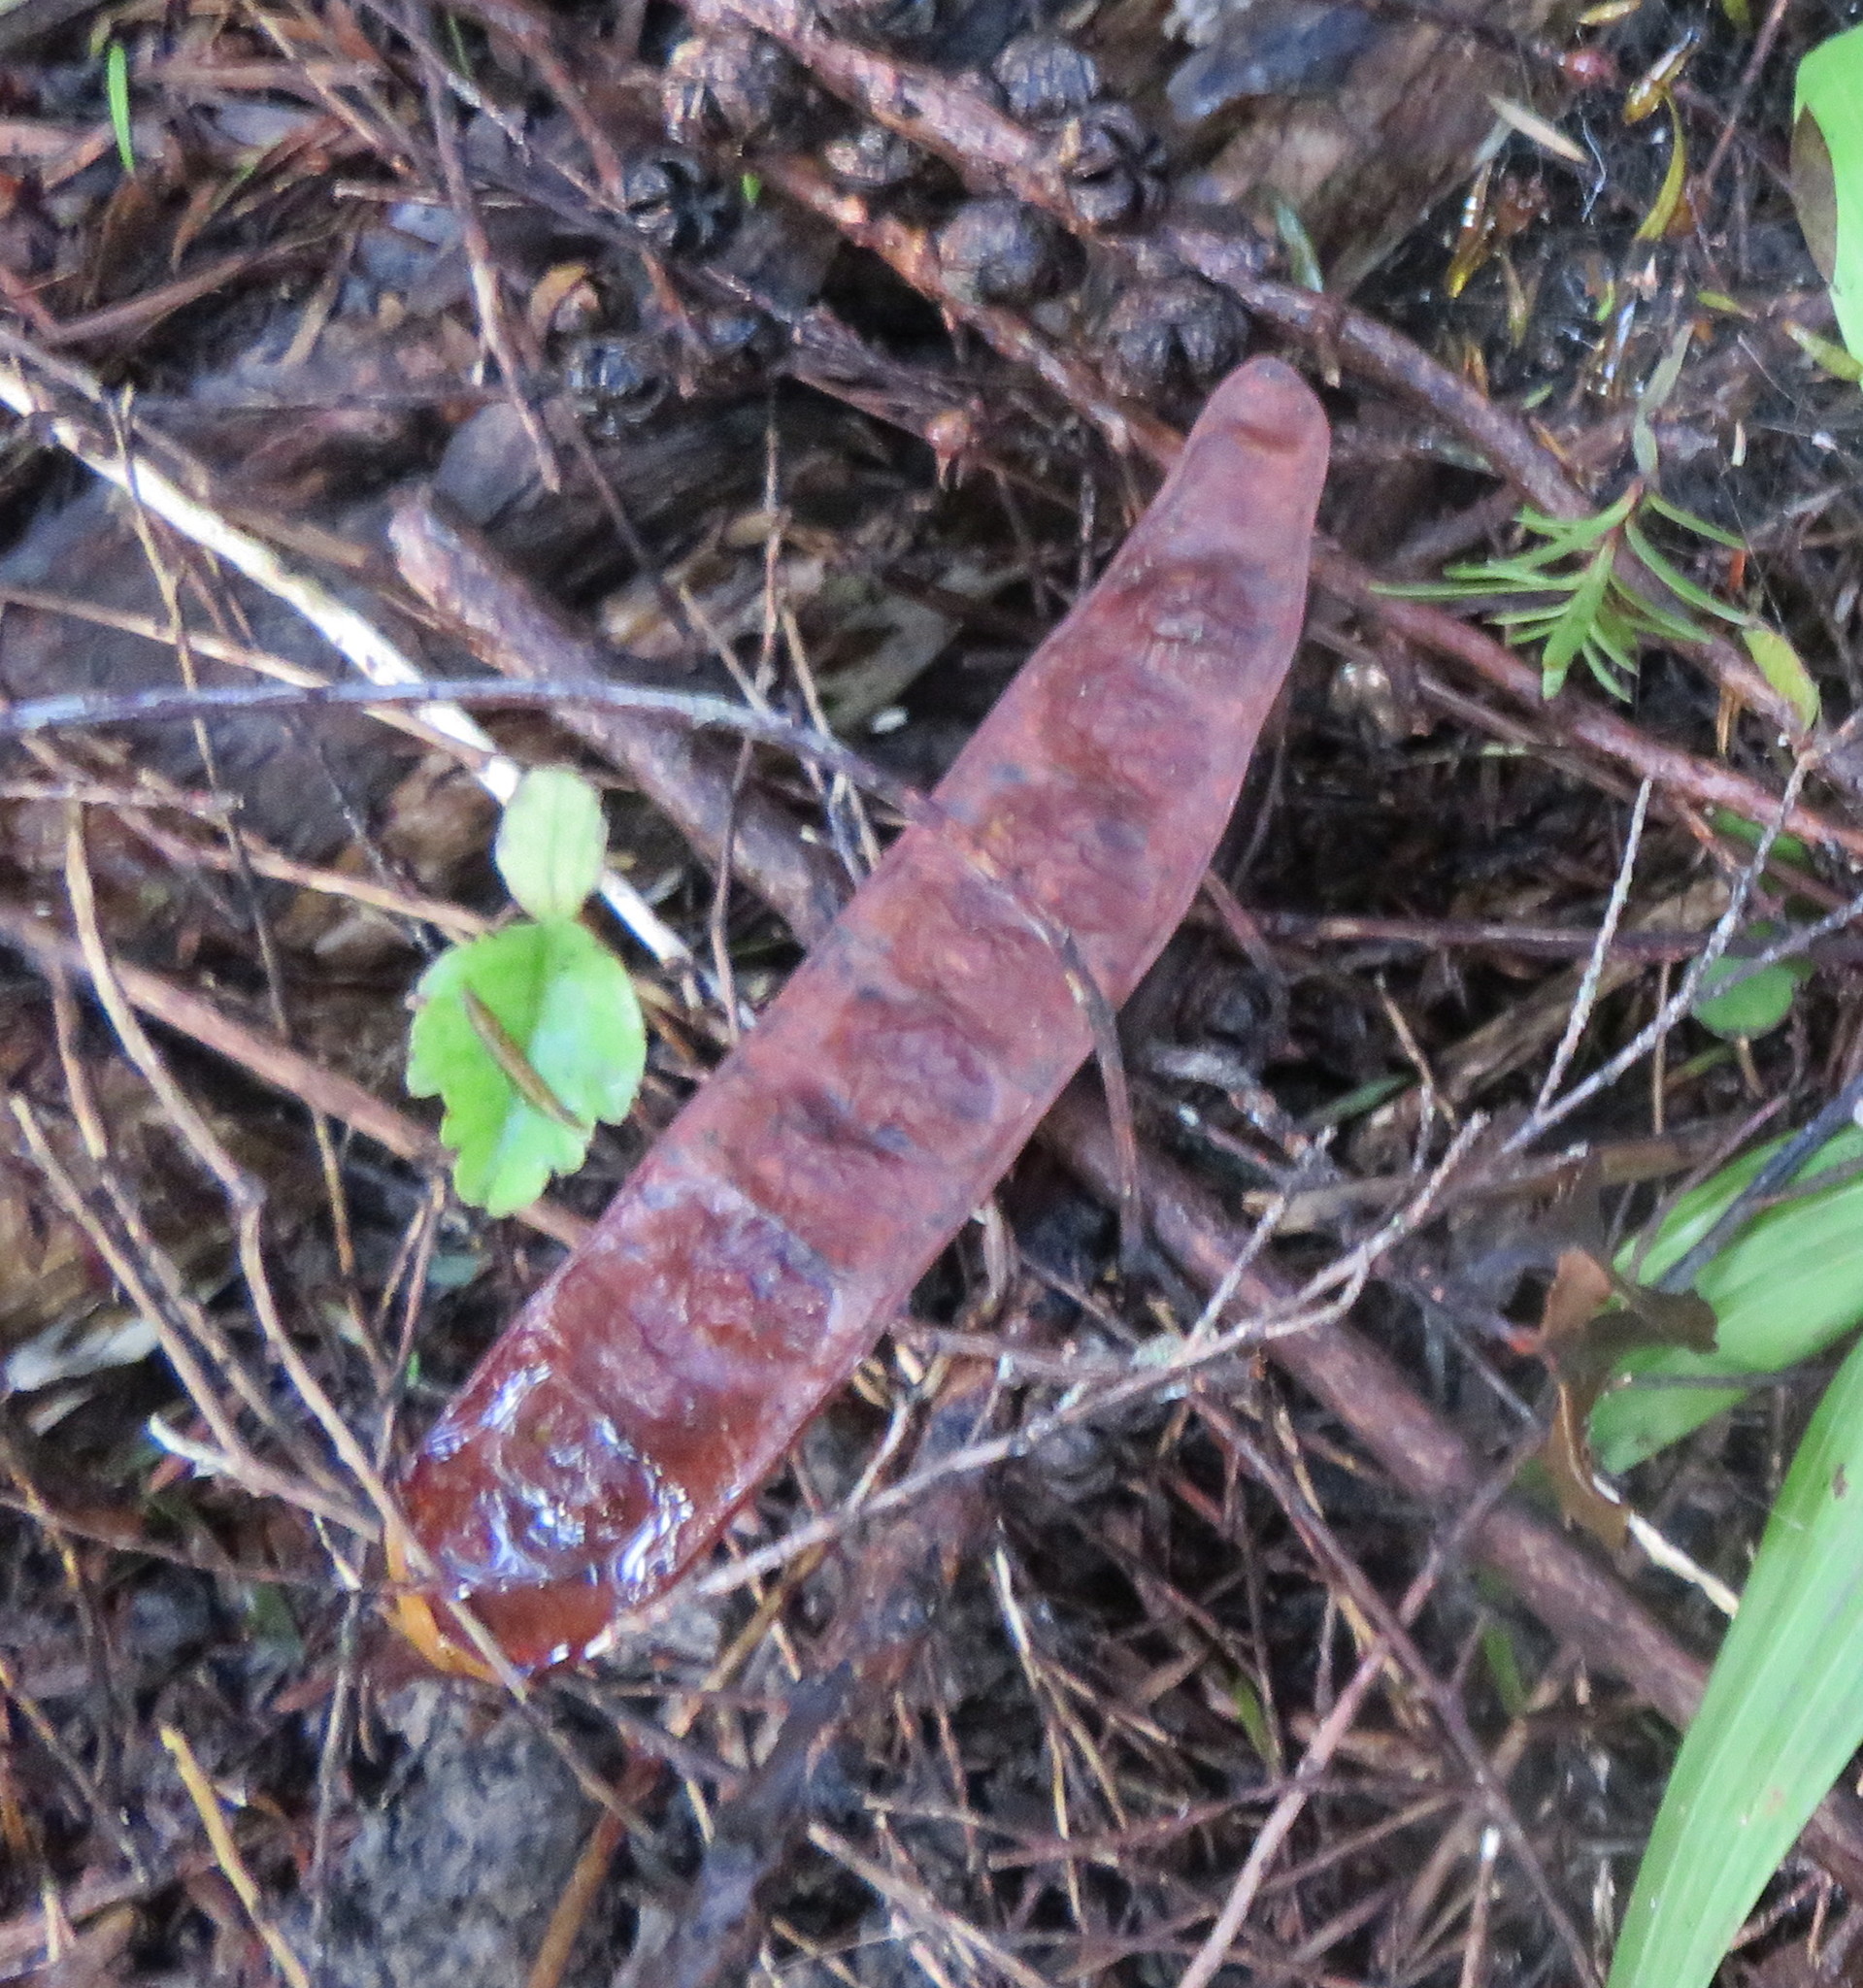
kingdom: Plantae
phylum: Tracheophyta
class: Magnoliopsida
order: Fabales
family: Fabaceae
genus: Paraserianthes
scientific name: Paraserianthes lophantha
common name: Plume albizia
